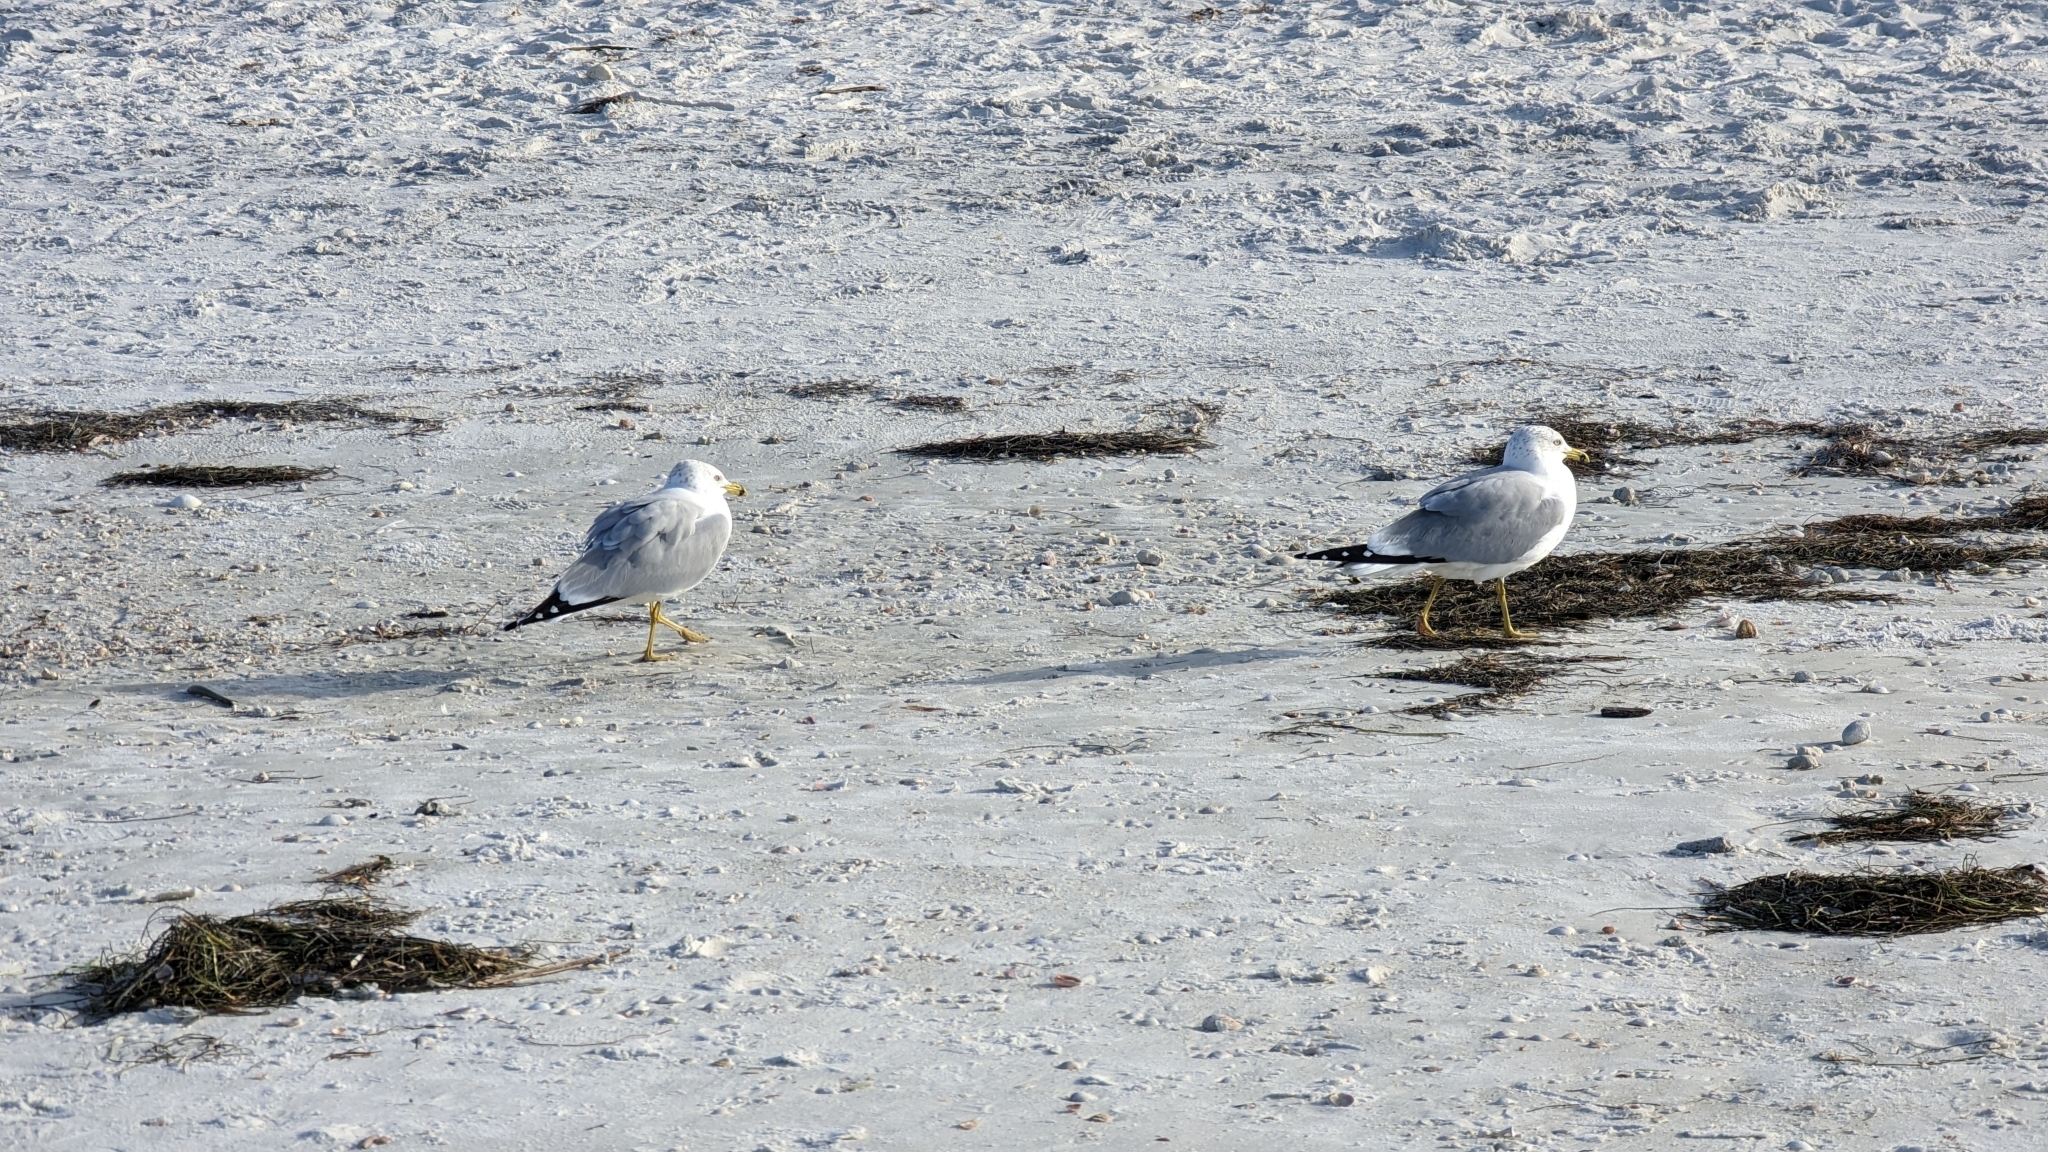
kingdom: Animalia
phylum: Chordata
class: Aves
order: Charadriiformes
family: Laridae
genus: Larus
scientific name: Larus delawarensis
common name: Ring-billed gull
